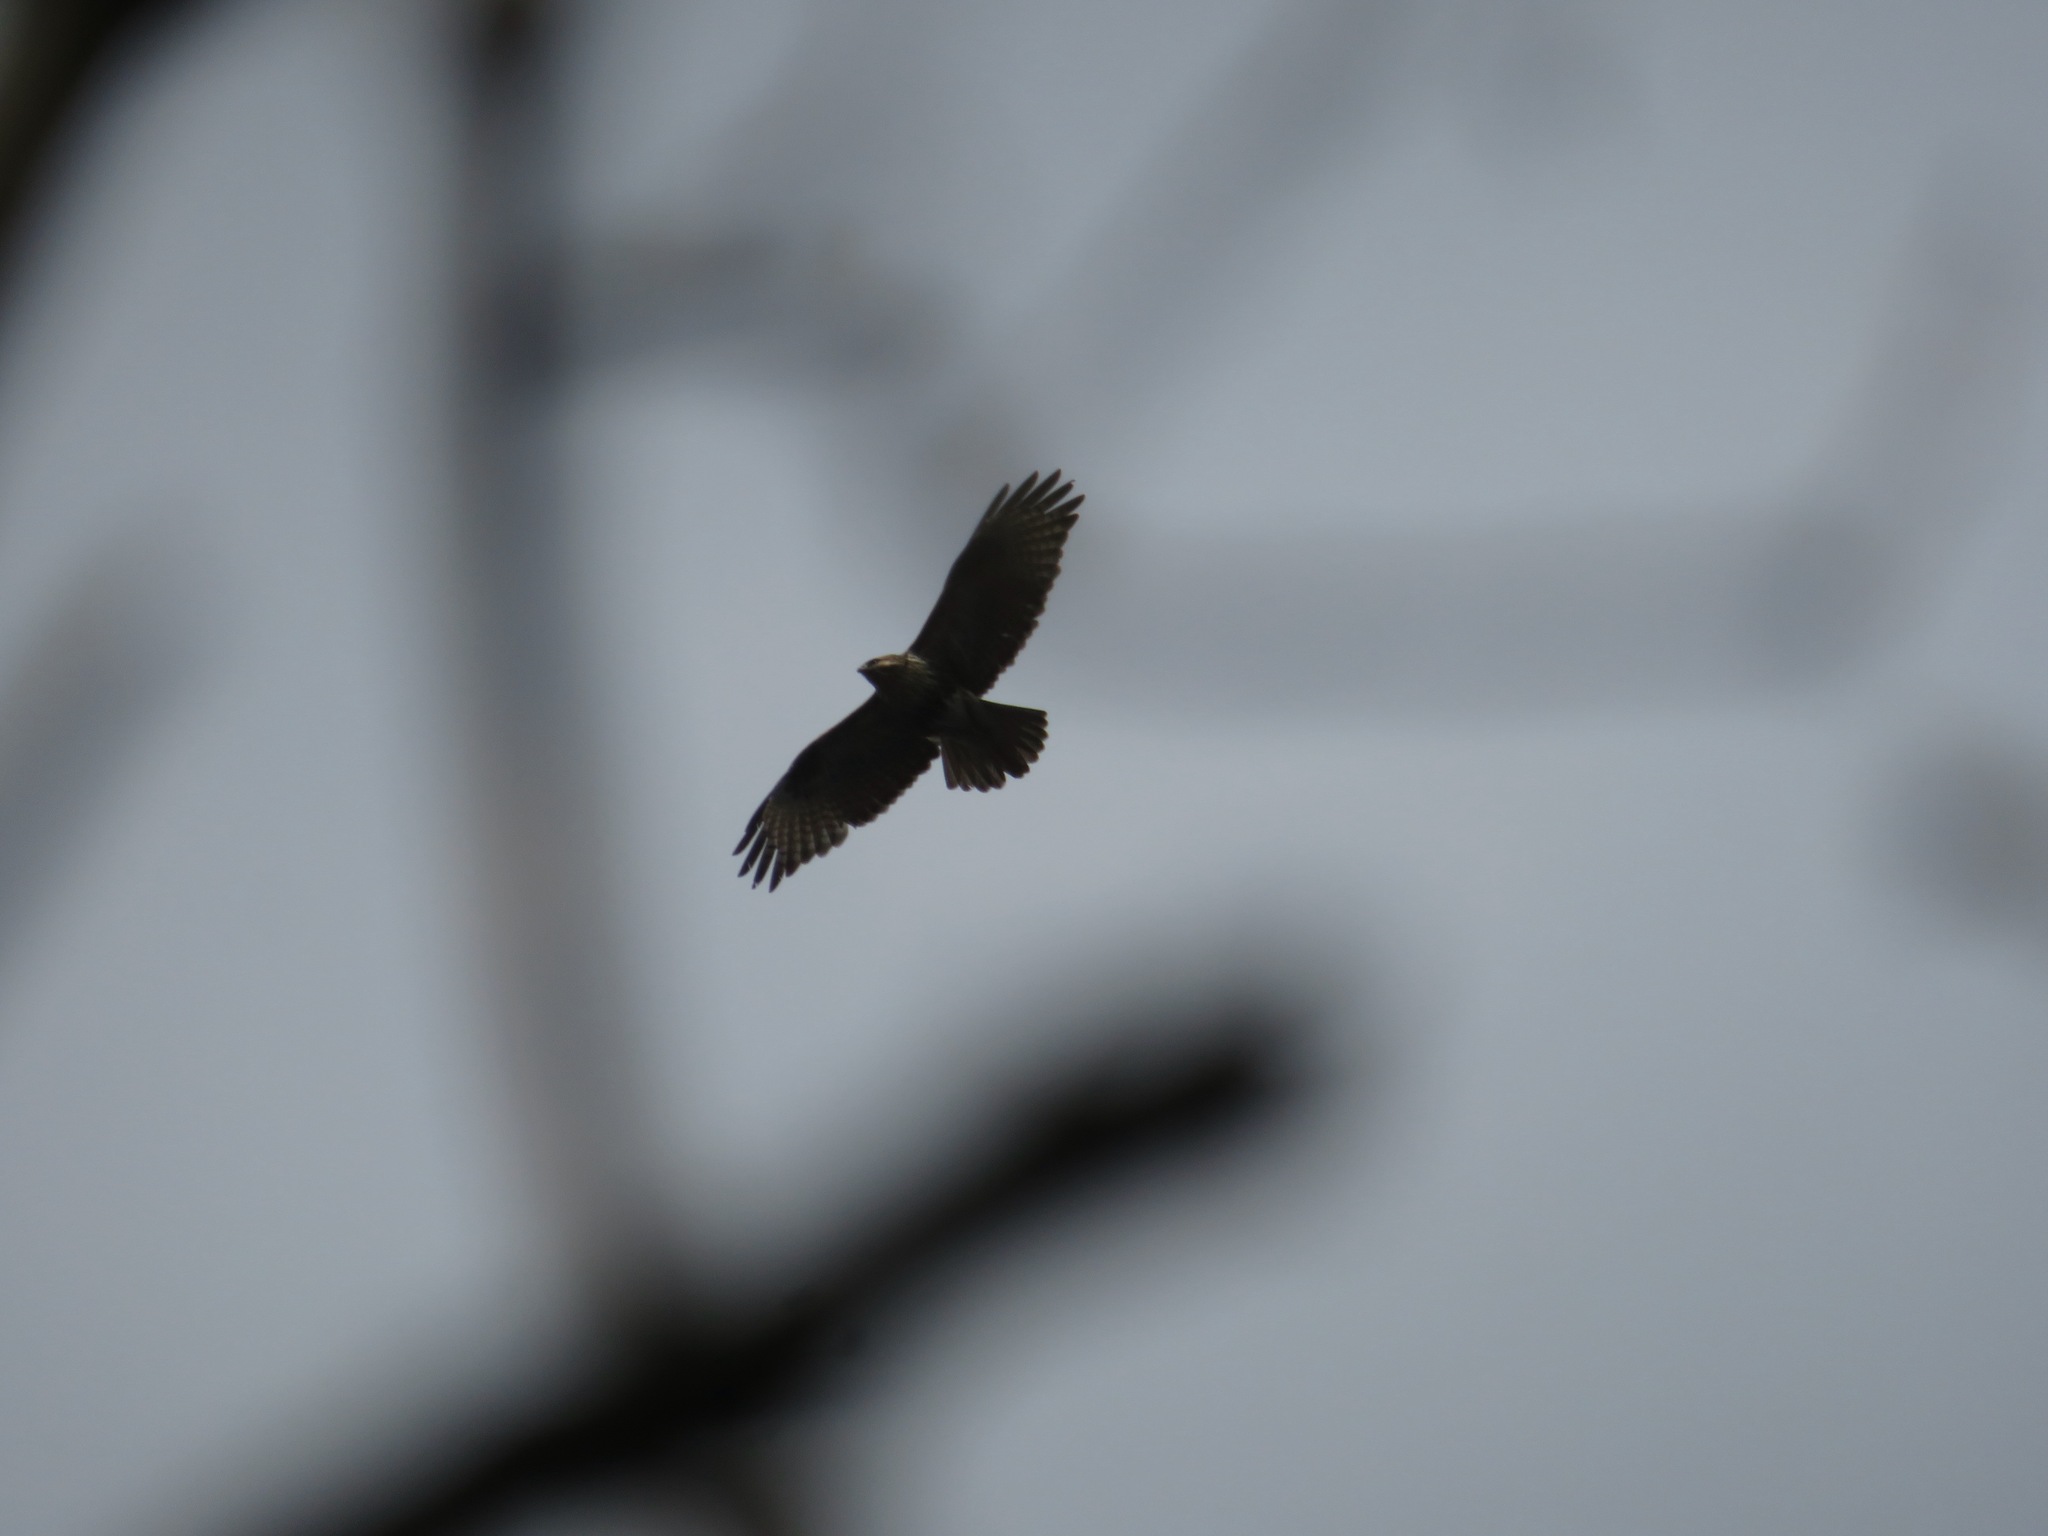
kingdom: Animalia
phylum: Chordata
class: Aves
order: Accipitriformes
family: Accipitridae
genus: Buteo
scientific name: Buteo japonicus
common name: Eastern buzzard
